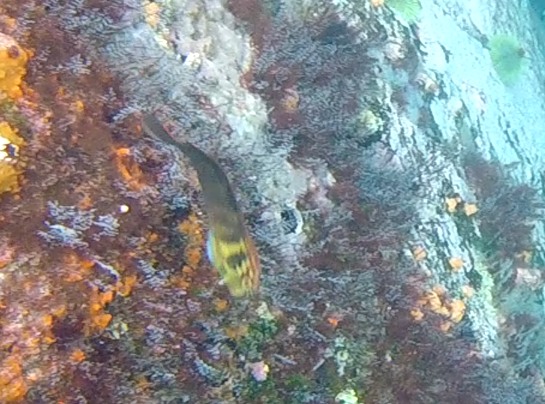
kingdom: Animalia
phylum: Chordata
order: Perciformes
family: Blenniidae
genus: Ophioblennius
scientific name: Ophioblennius steindachneri
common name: Panamic fanged blenny
